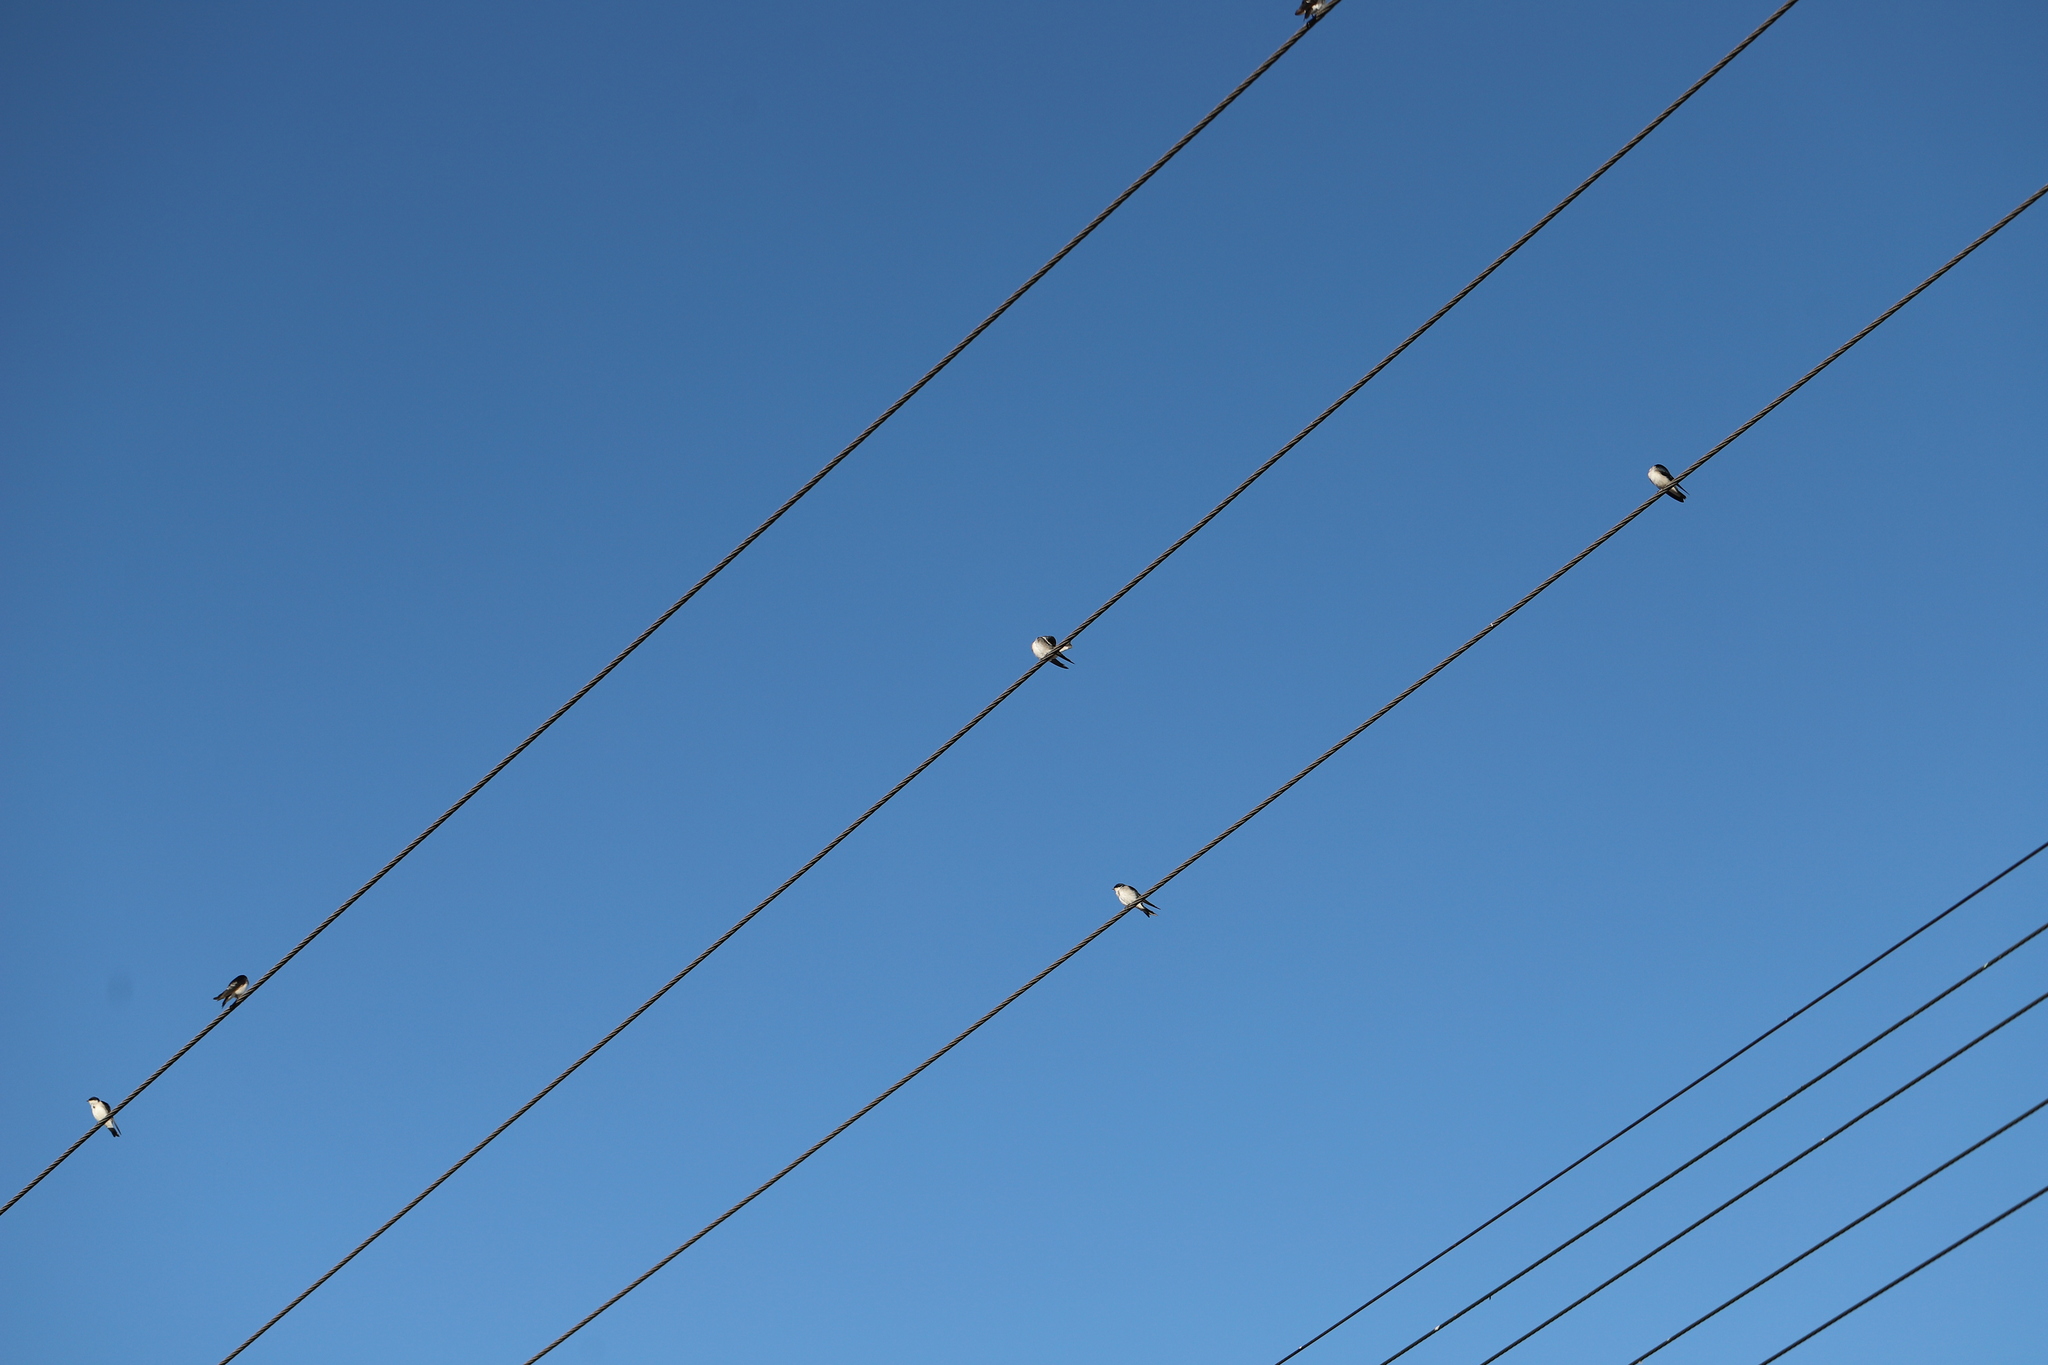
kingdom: Animalia
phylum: Chordata
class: Aves
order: Passeriformes
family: Hirundinidae
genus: Tachycineta
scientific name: Tachycineta leucopyga
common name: Chilean swallow
